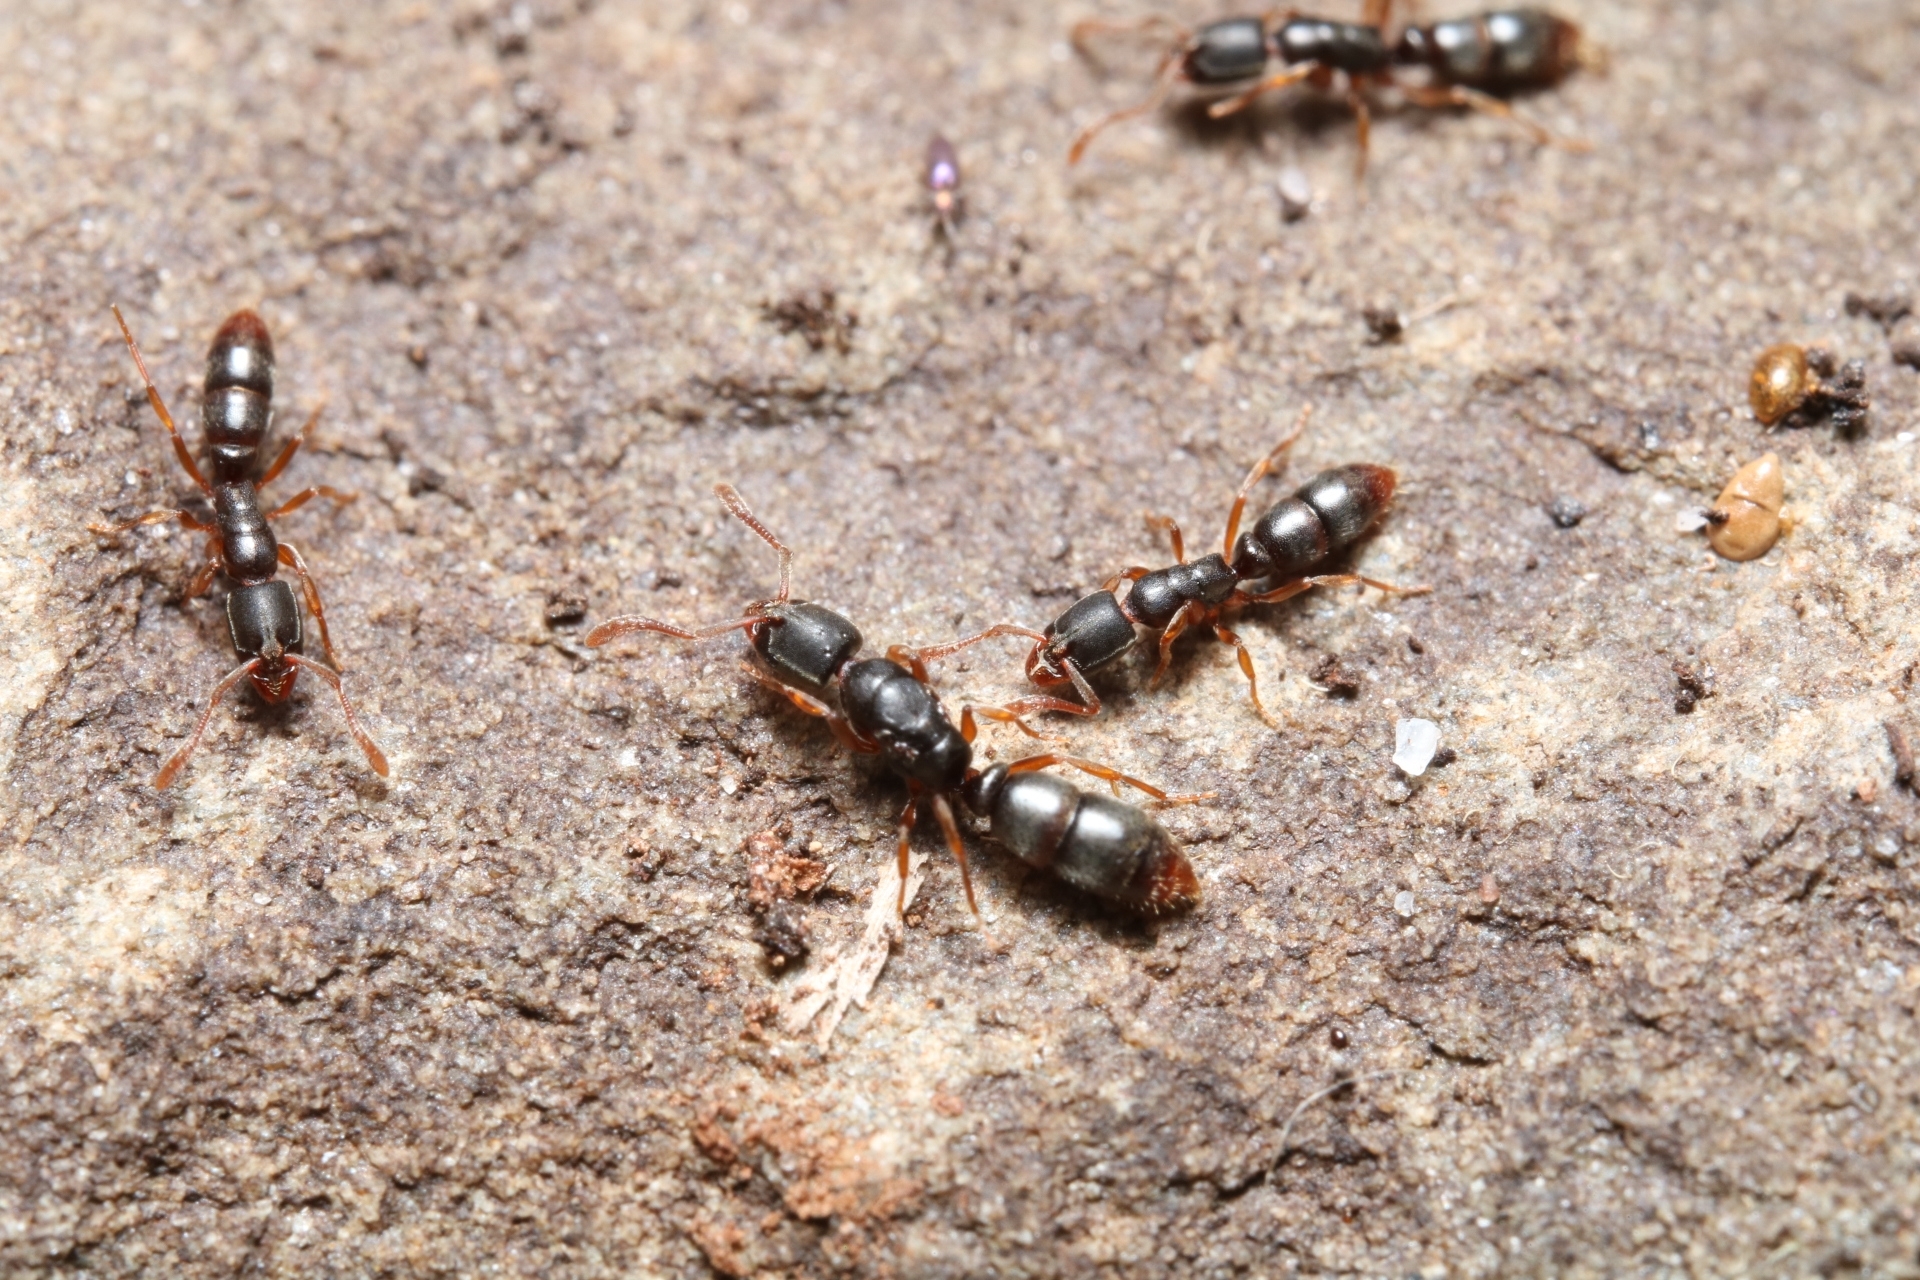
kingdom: Animalia
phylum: Arthropoda
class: Insecta
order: Hymenoptera
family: Formicidae
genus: Ponera
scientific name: Ponera pennsylvanica
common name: Pennsylvania ponera
